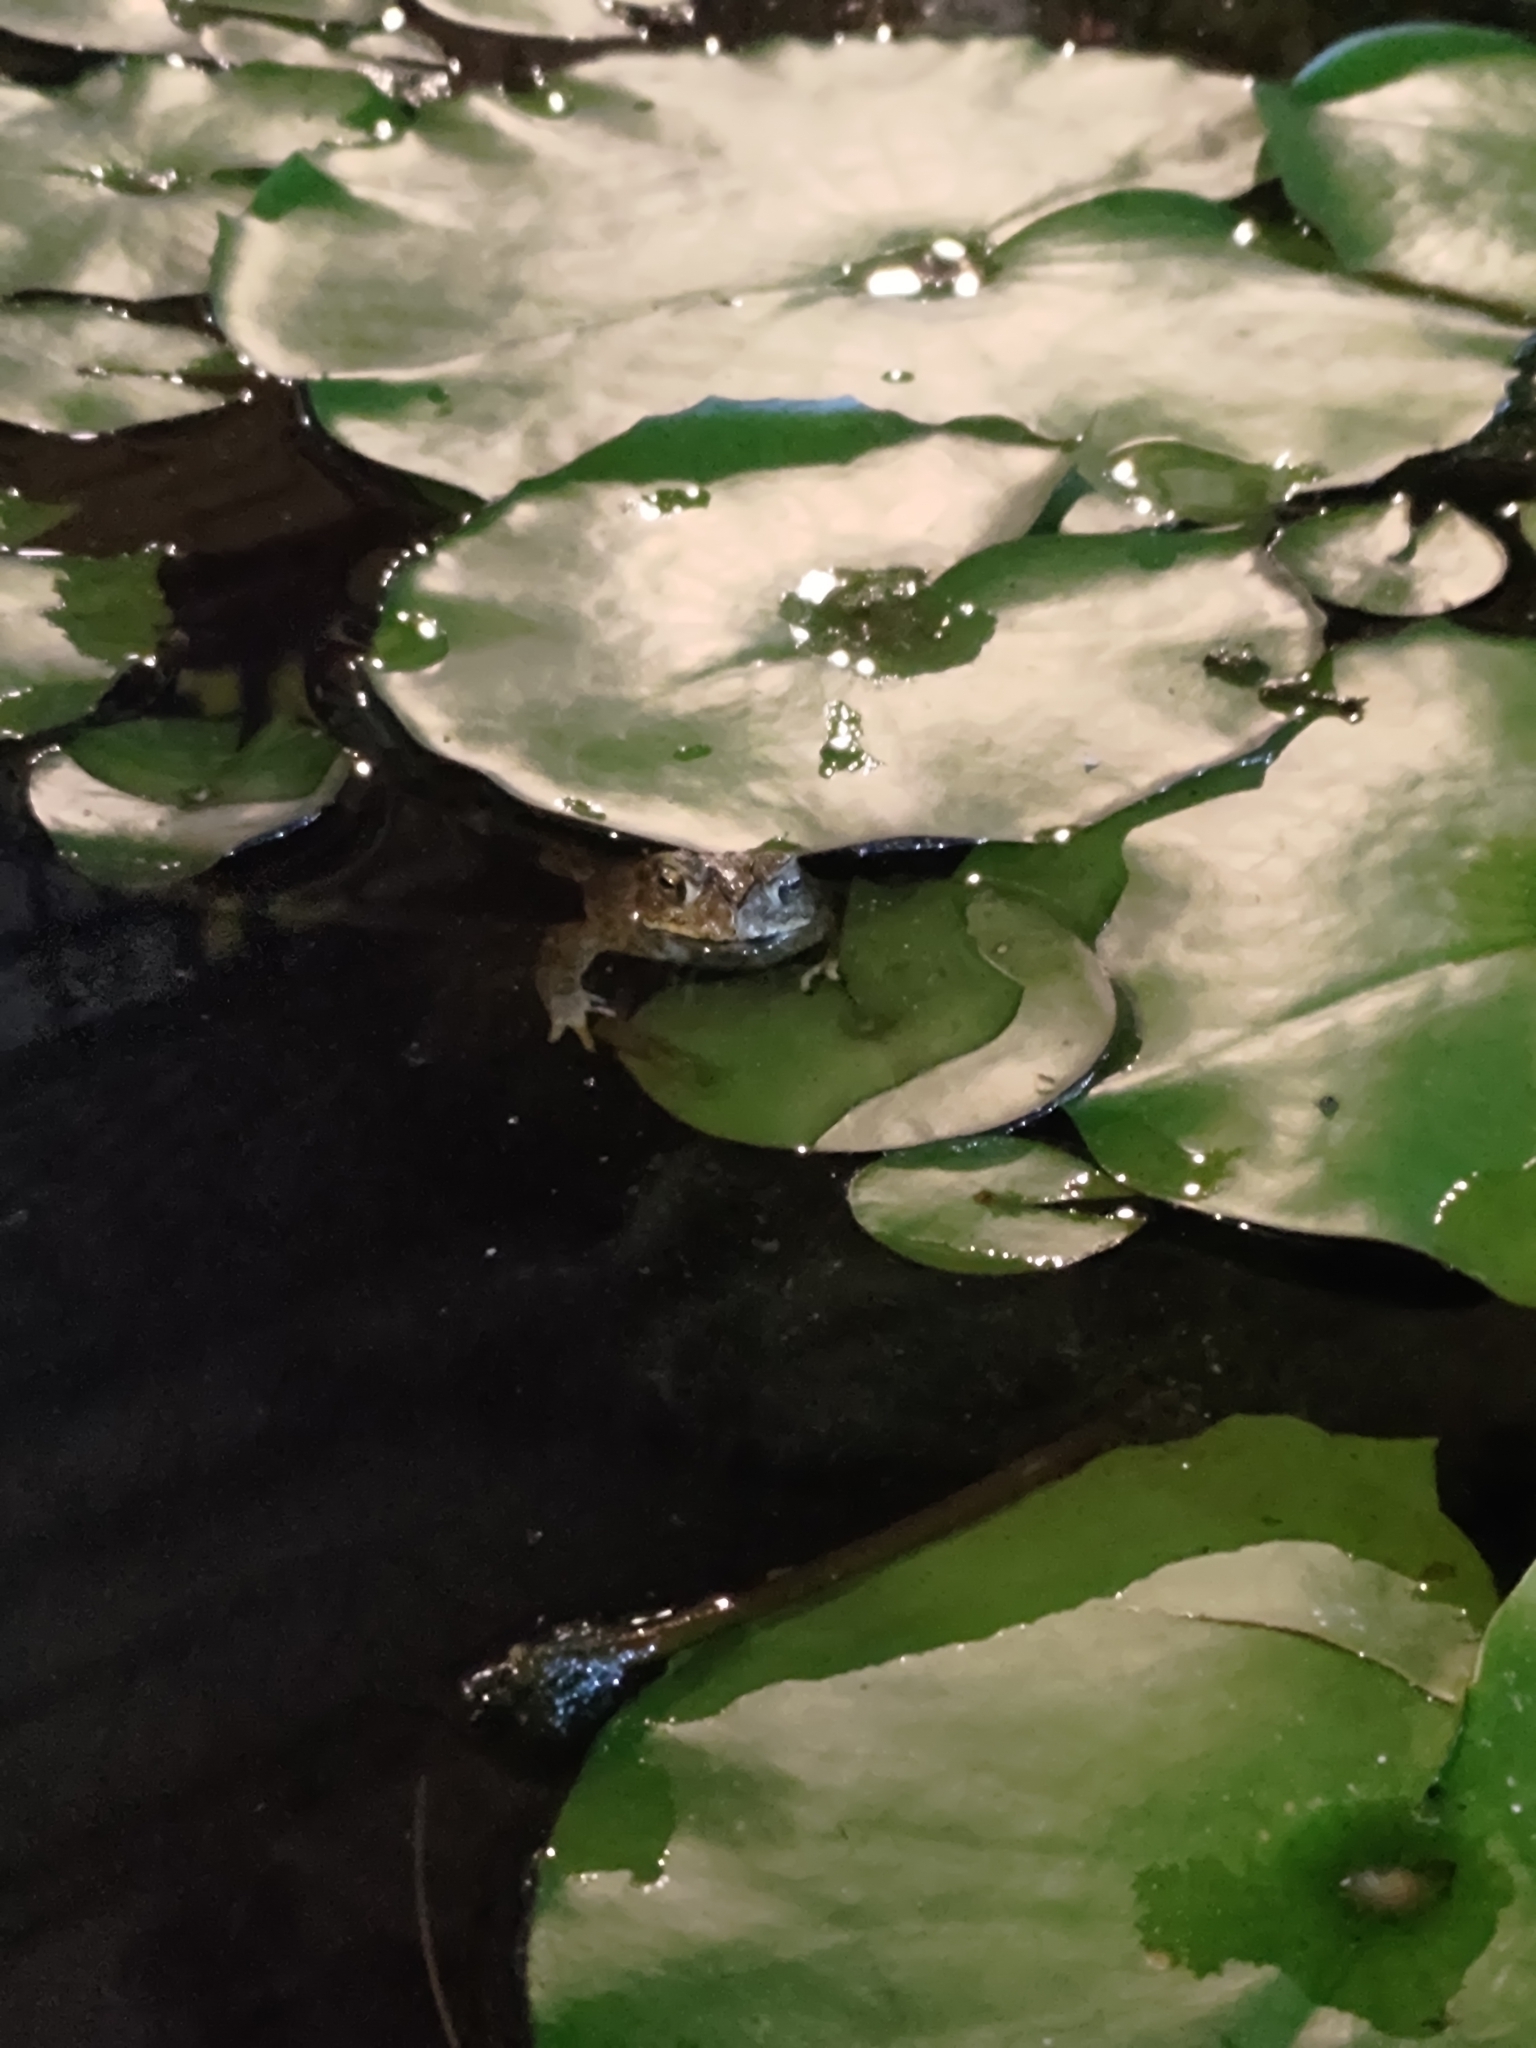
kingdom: Animalia
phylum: Chordata
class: Amphibia
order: Anura
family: Bufonidae
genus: Duttaphrynus
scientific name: Duttaphrynus melanostictus
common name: Common sunda toad
